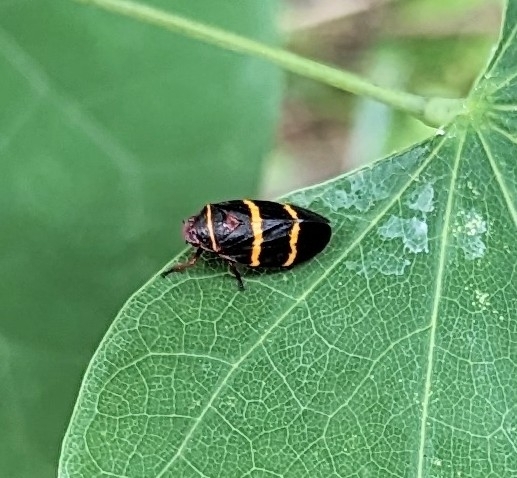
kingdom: Animalia
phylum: Arthropoda
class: Insecta
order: Hemiptera
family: Cercopidae
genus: Prosapia
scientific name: Prosapia bicincta
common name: Twolined spittlebug
